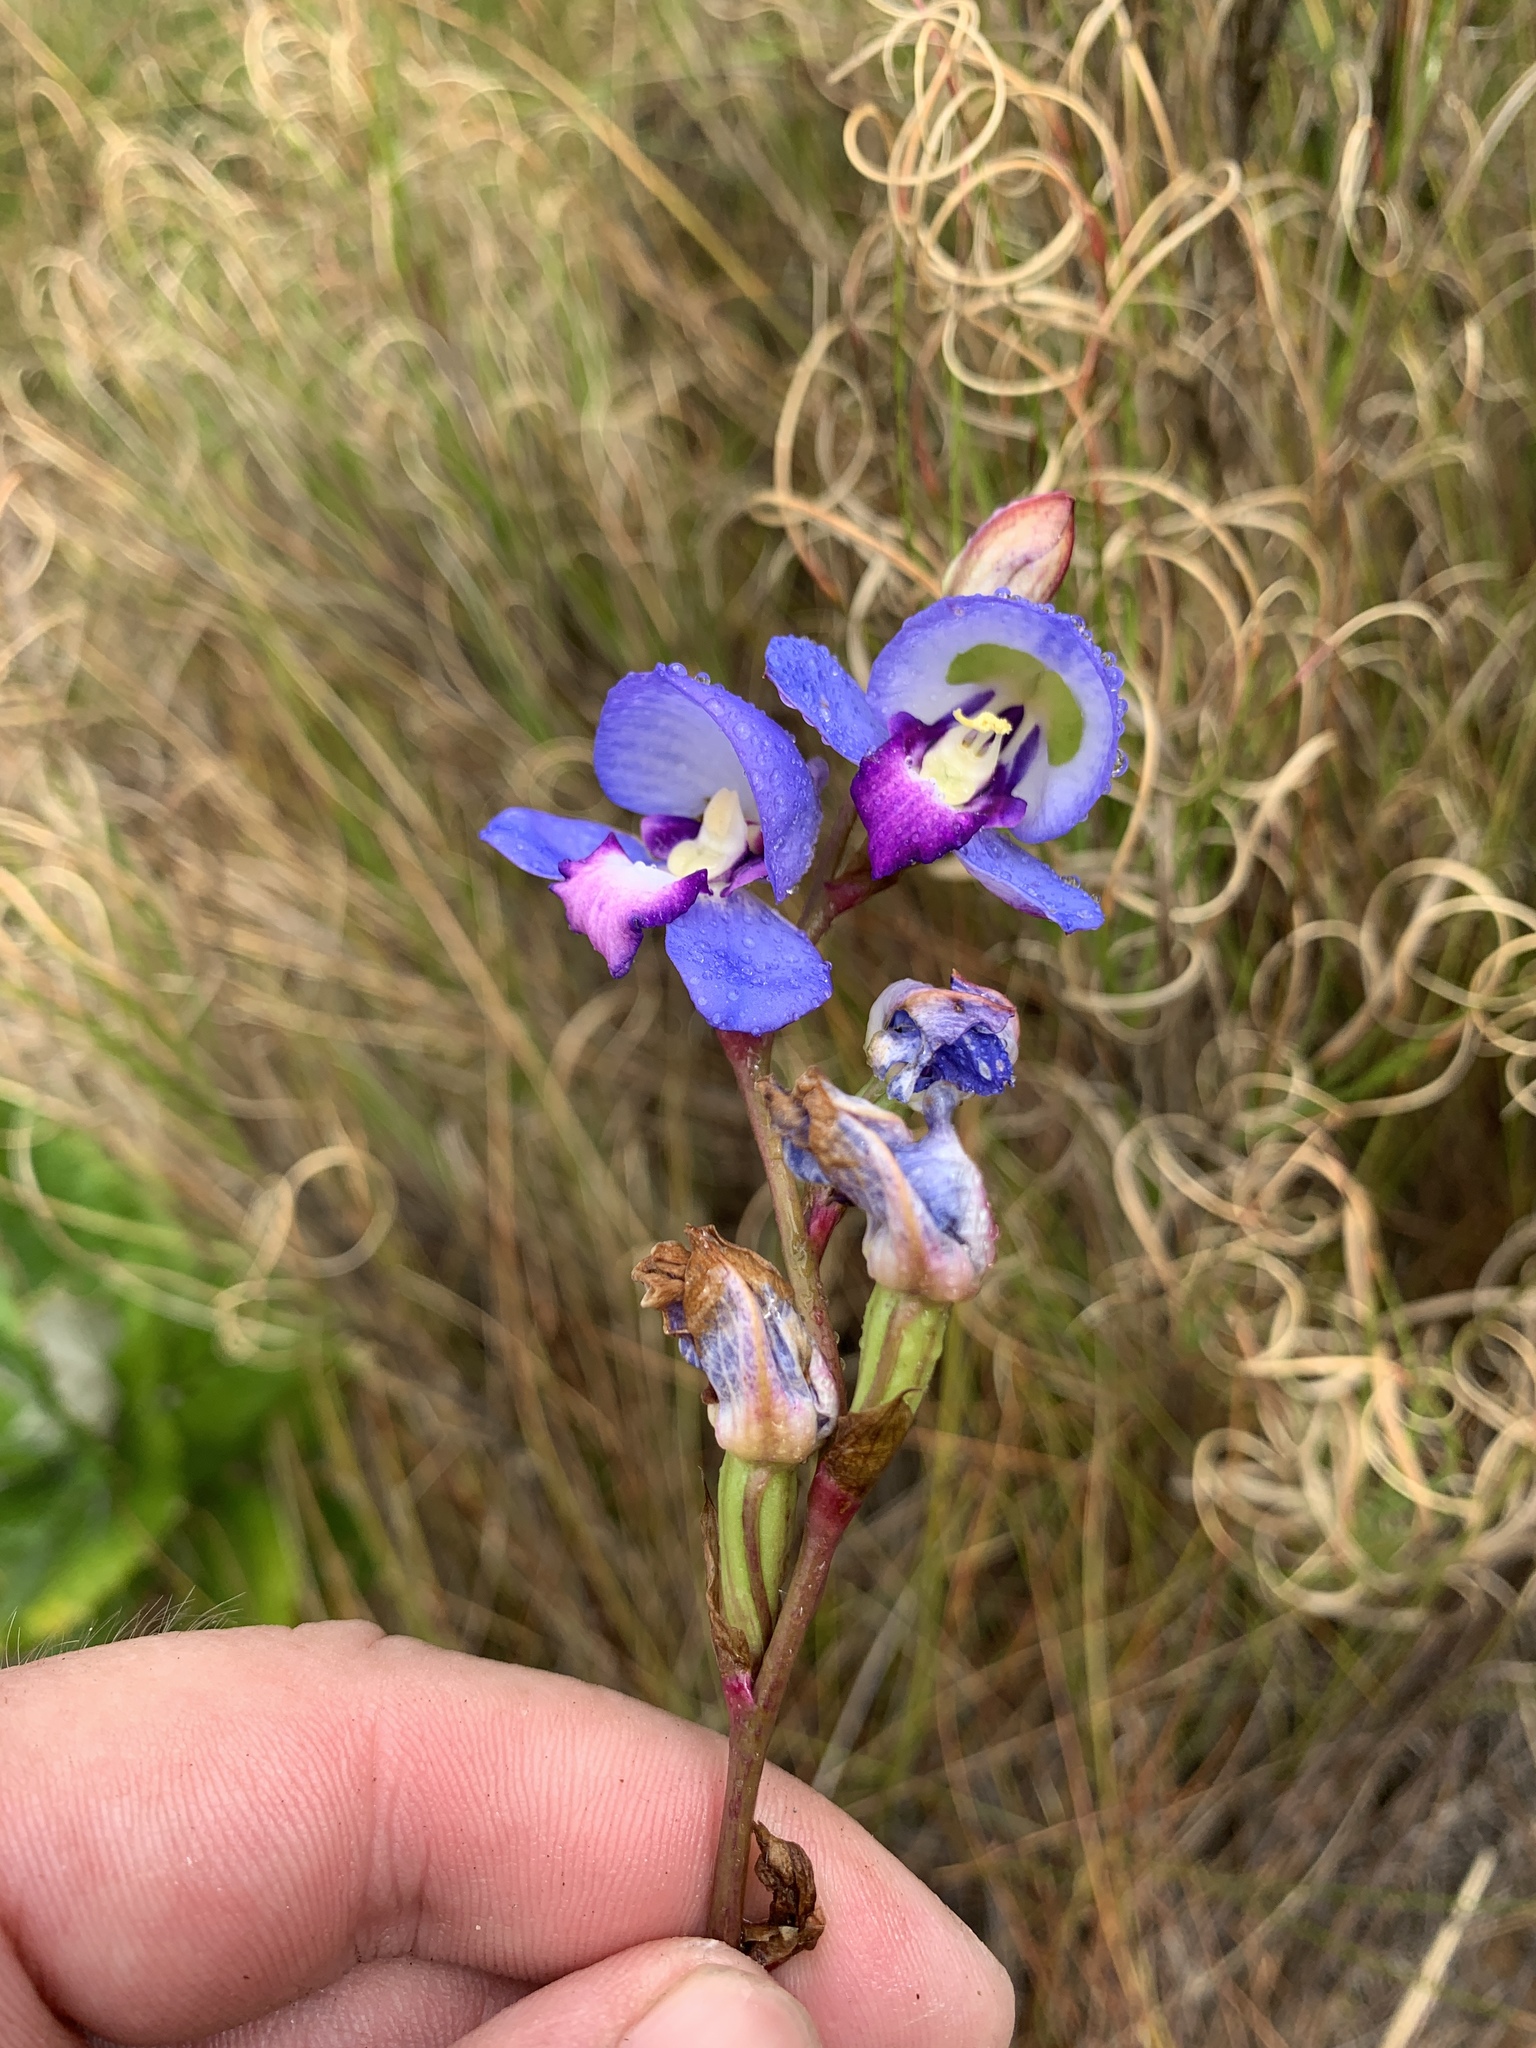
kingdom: Plantae
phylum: Tracheophyta
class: Liliopsida
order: Asparagales
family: Orchidaceae
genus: Disa
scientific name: Disa graminifolia
